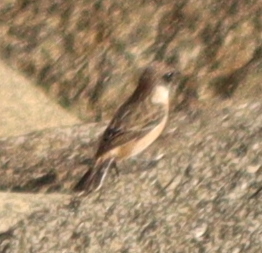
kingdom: Animalia
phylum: Chordata
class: Aves
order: Passeriformes
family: Muscicapidae
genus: Saxicola
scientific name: Saxicola rubicola
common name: European stonechat
